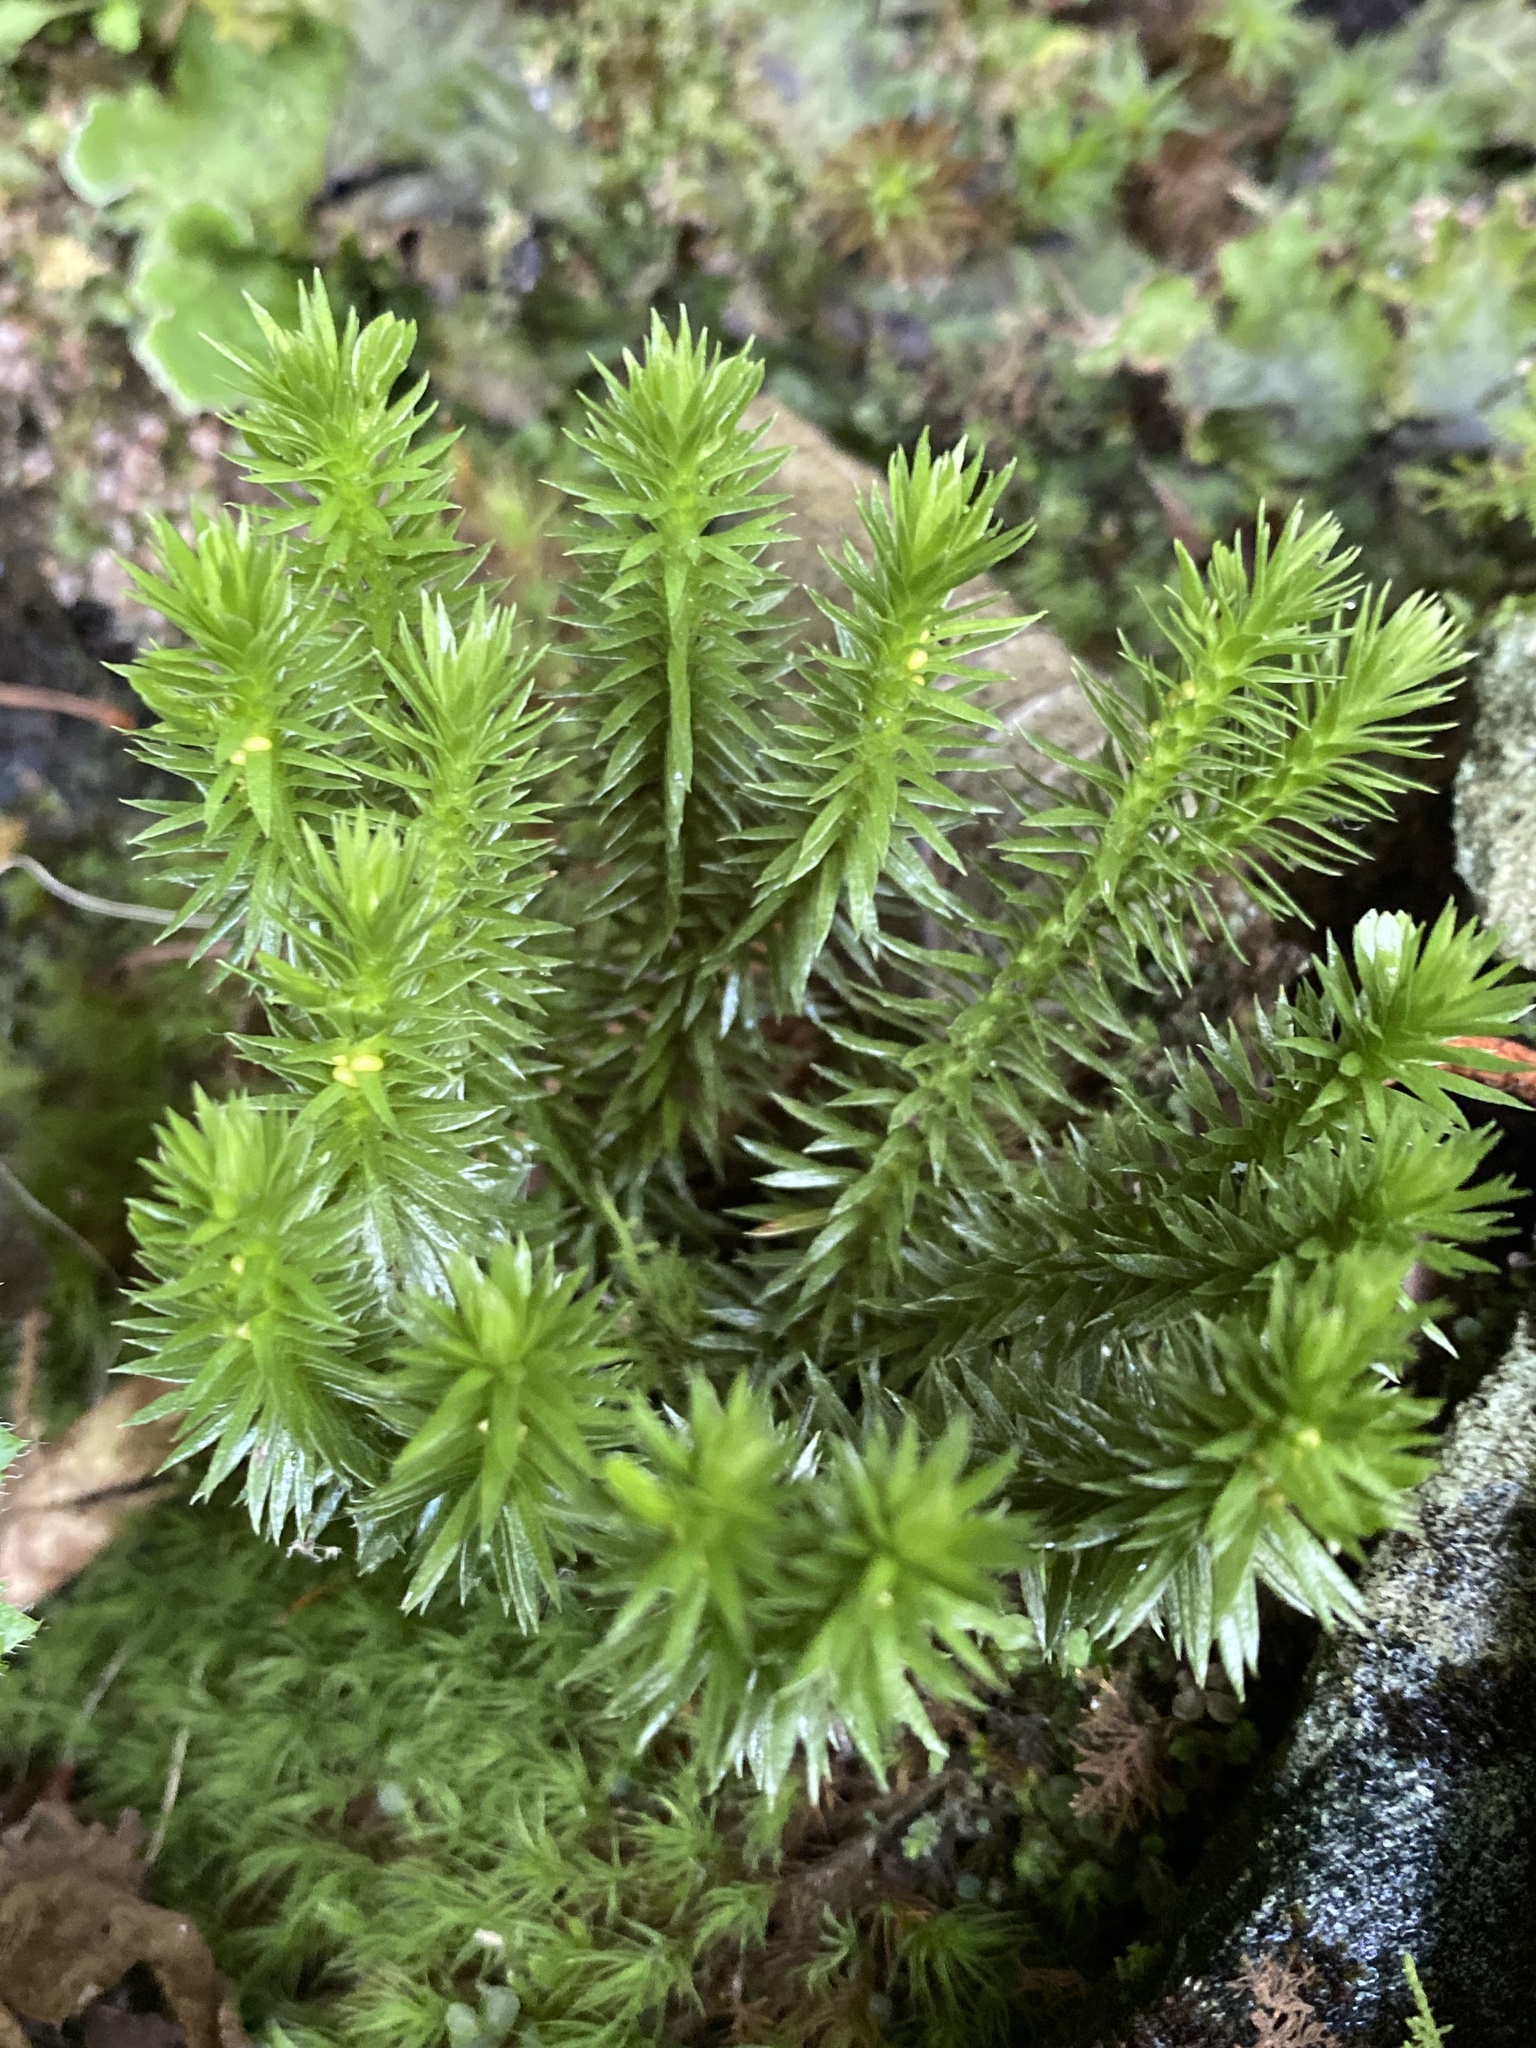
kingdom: Plantae
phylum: Tracheophyta
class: Lycopodiopsida
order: Lycopodiales
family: Lycopodiaceae
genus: Huperzia
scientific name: Huperzia protoporophila
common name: Hybrid rock firmoss
